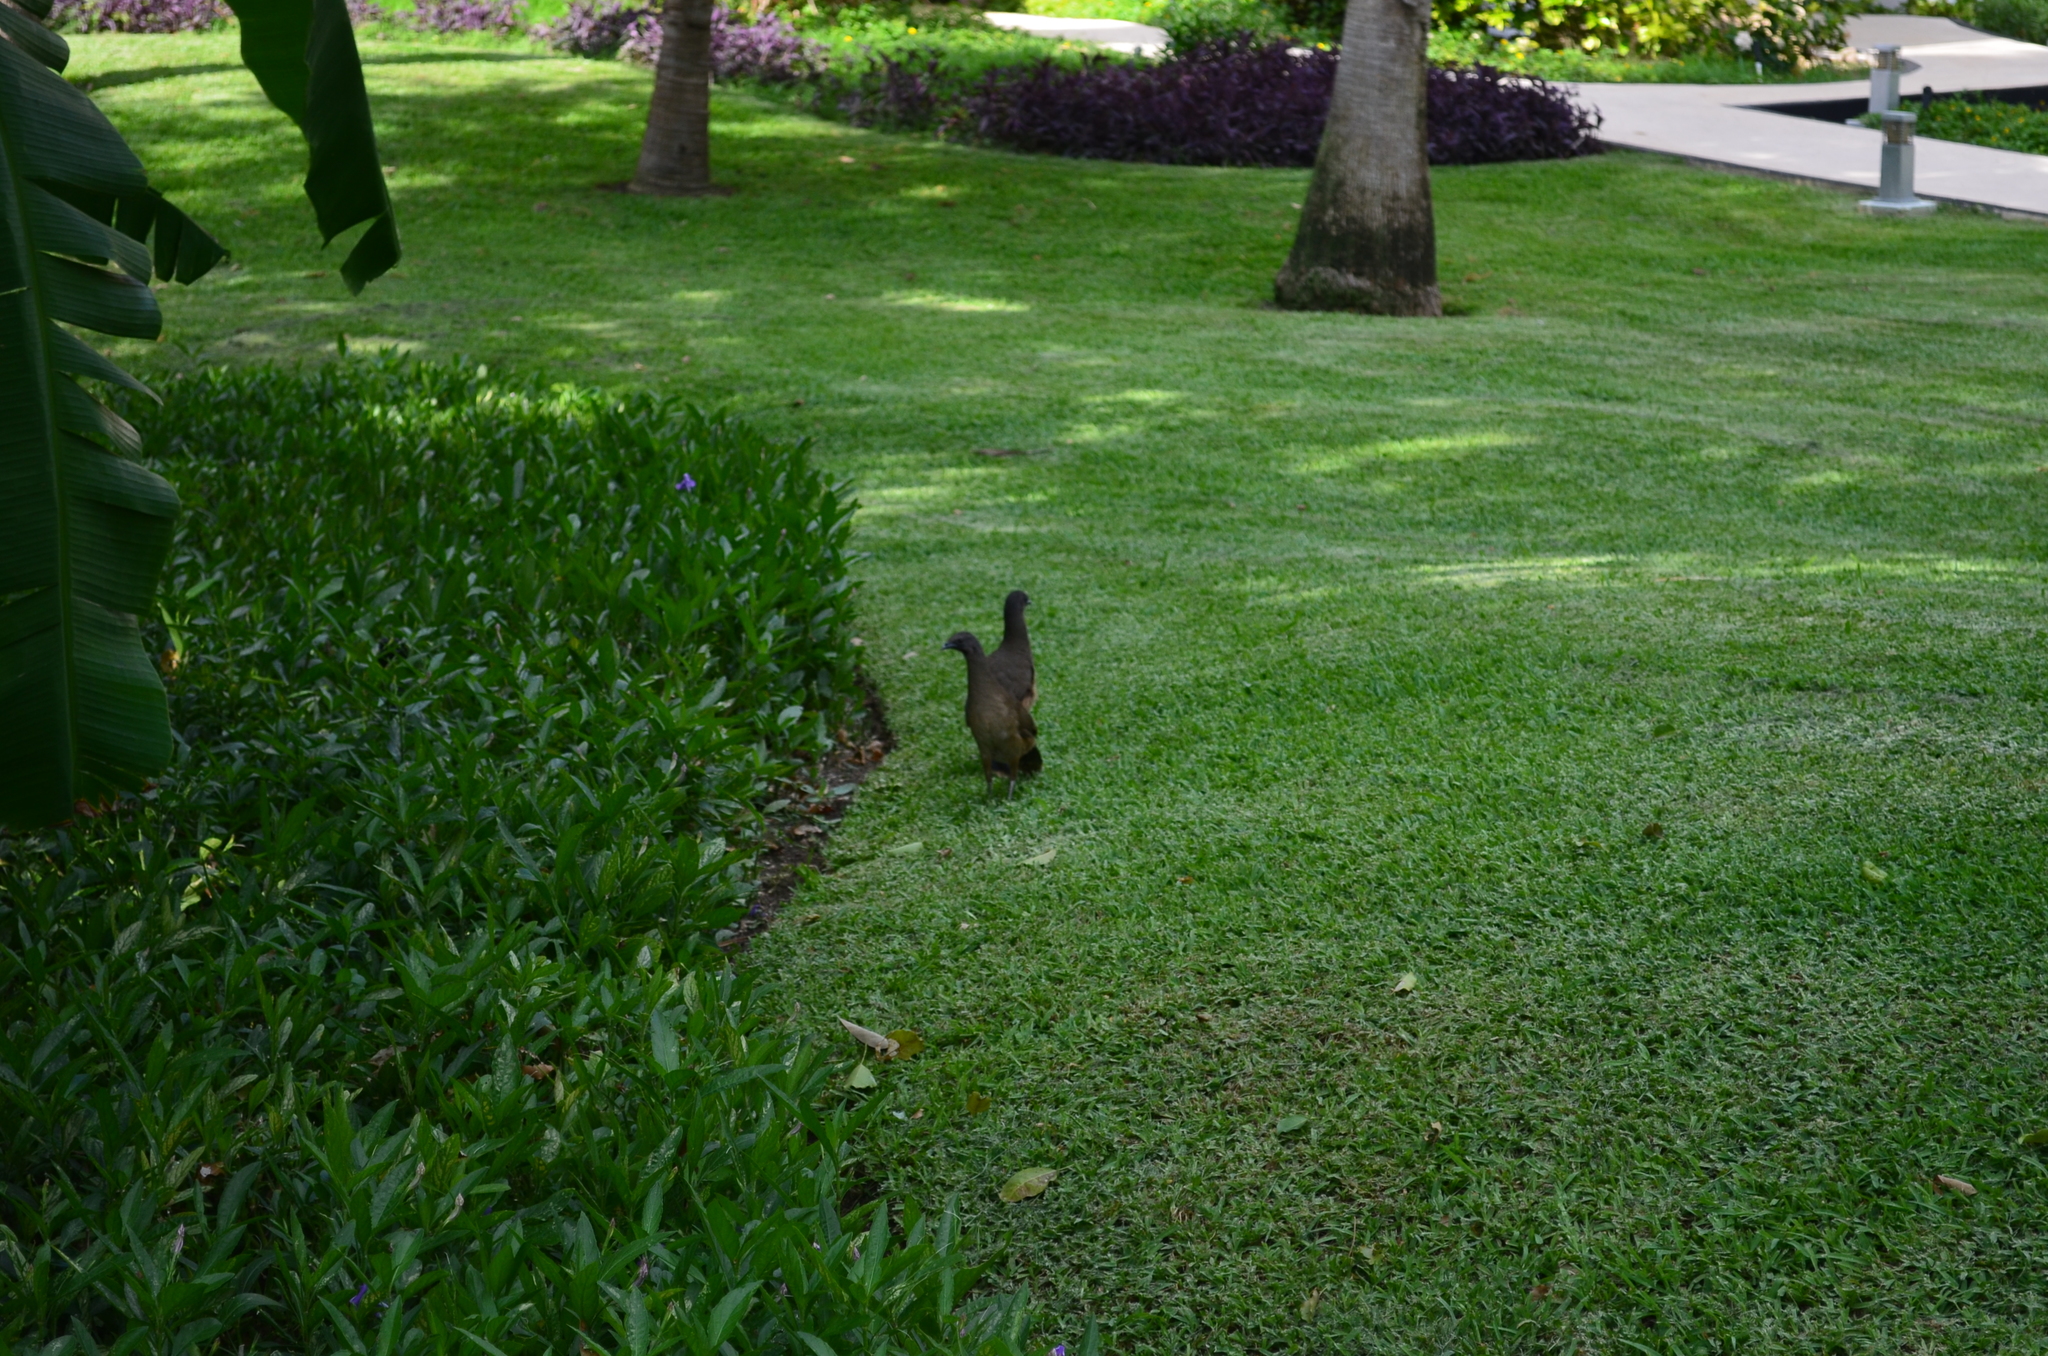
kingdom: Animalia
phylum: Chordata
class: Aves
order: Galliformes
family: Cracidae
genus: Ortalis
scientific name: Ortalis vetula
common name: Plain chachalaca
